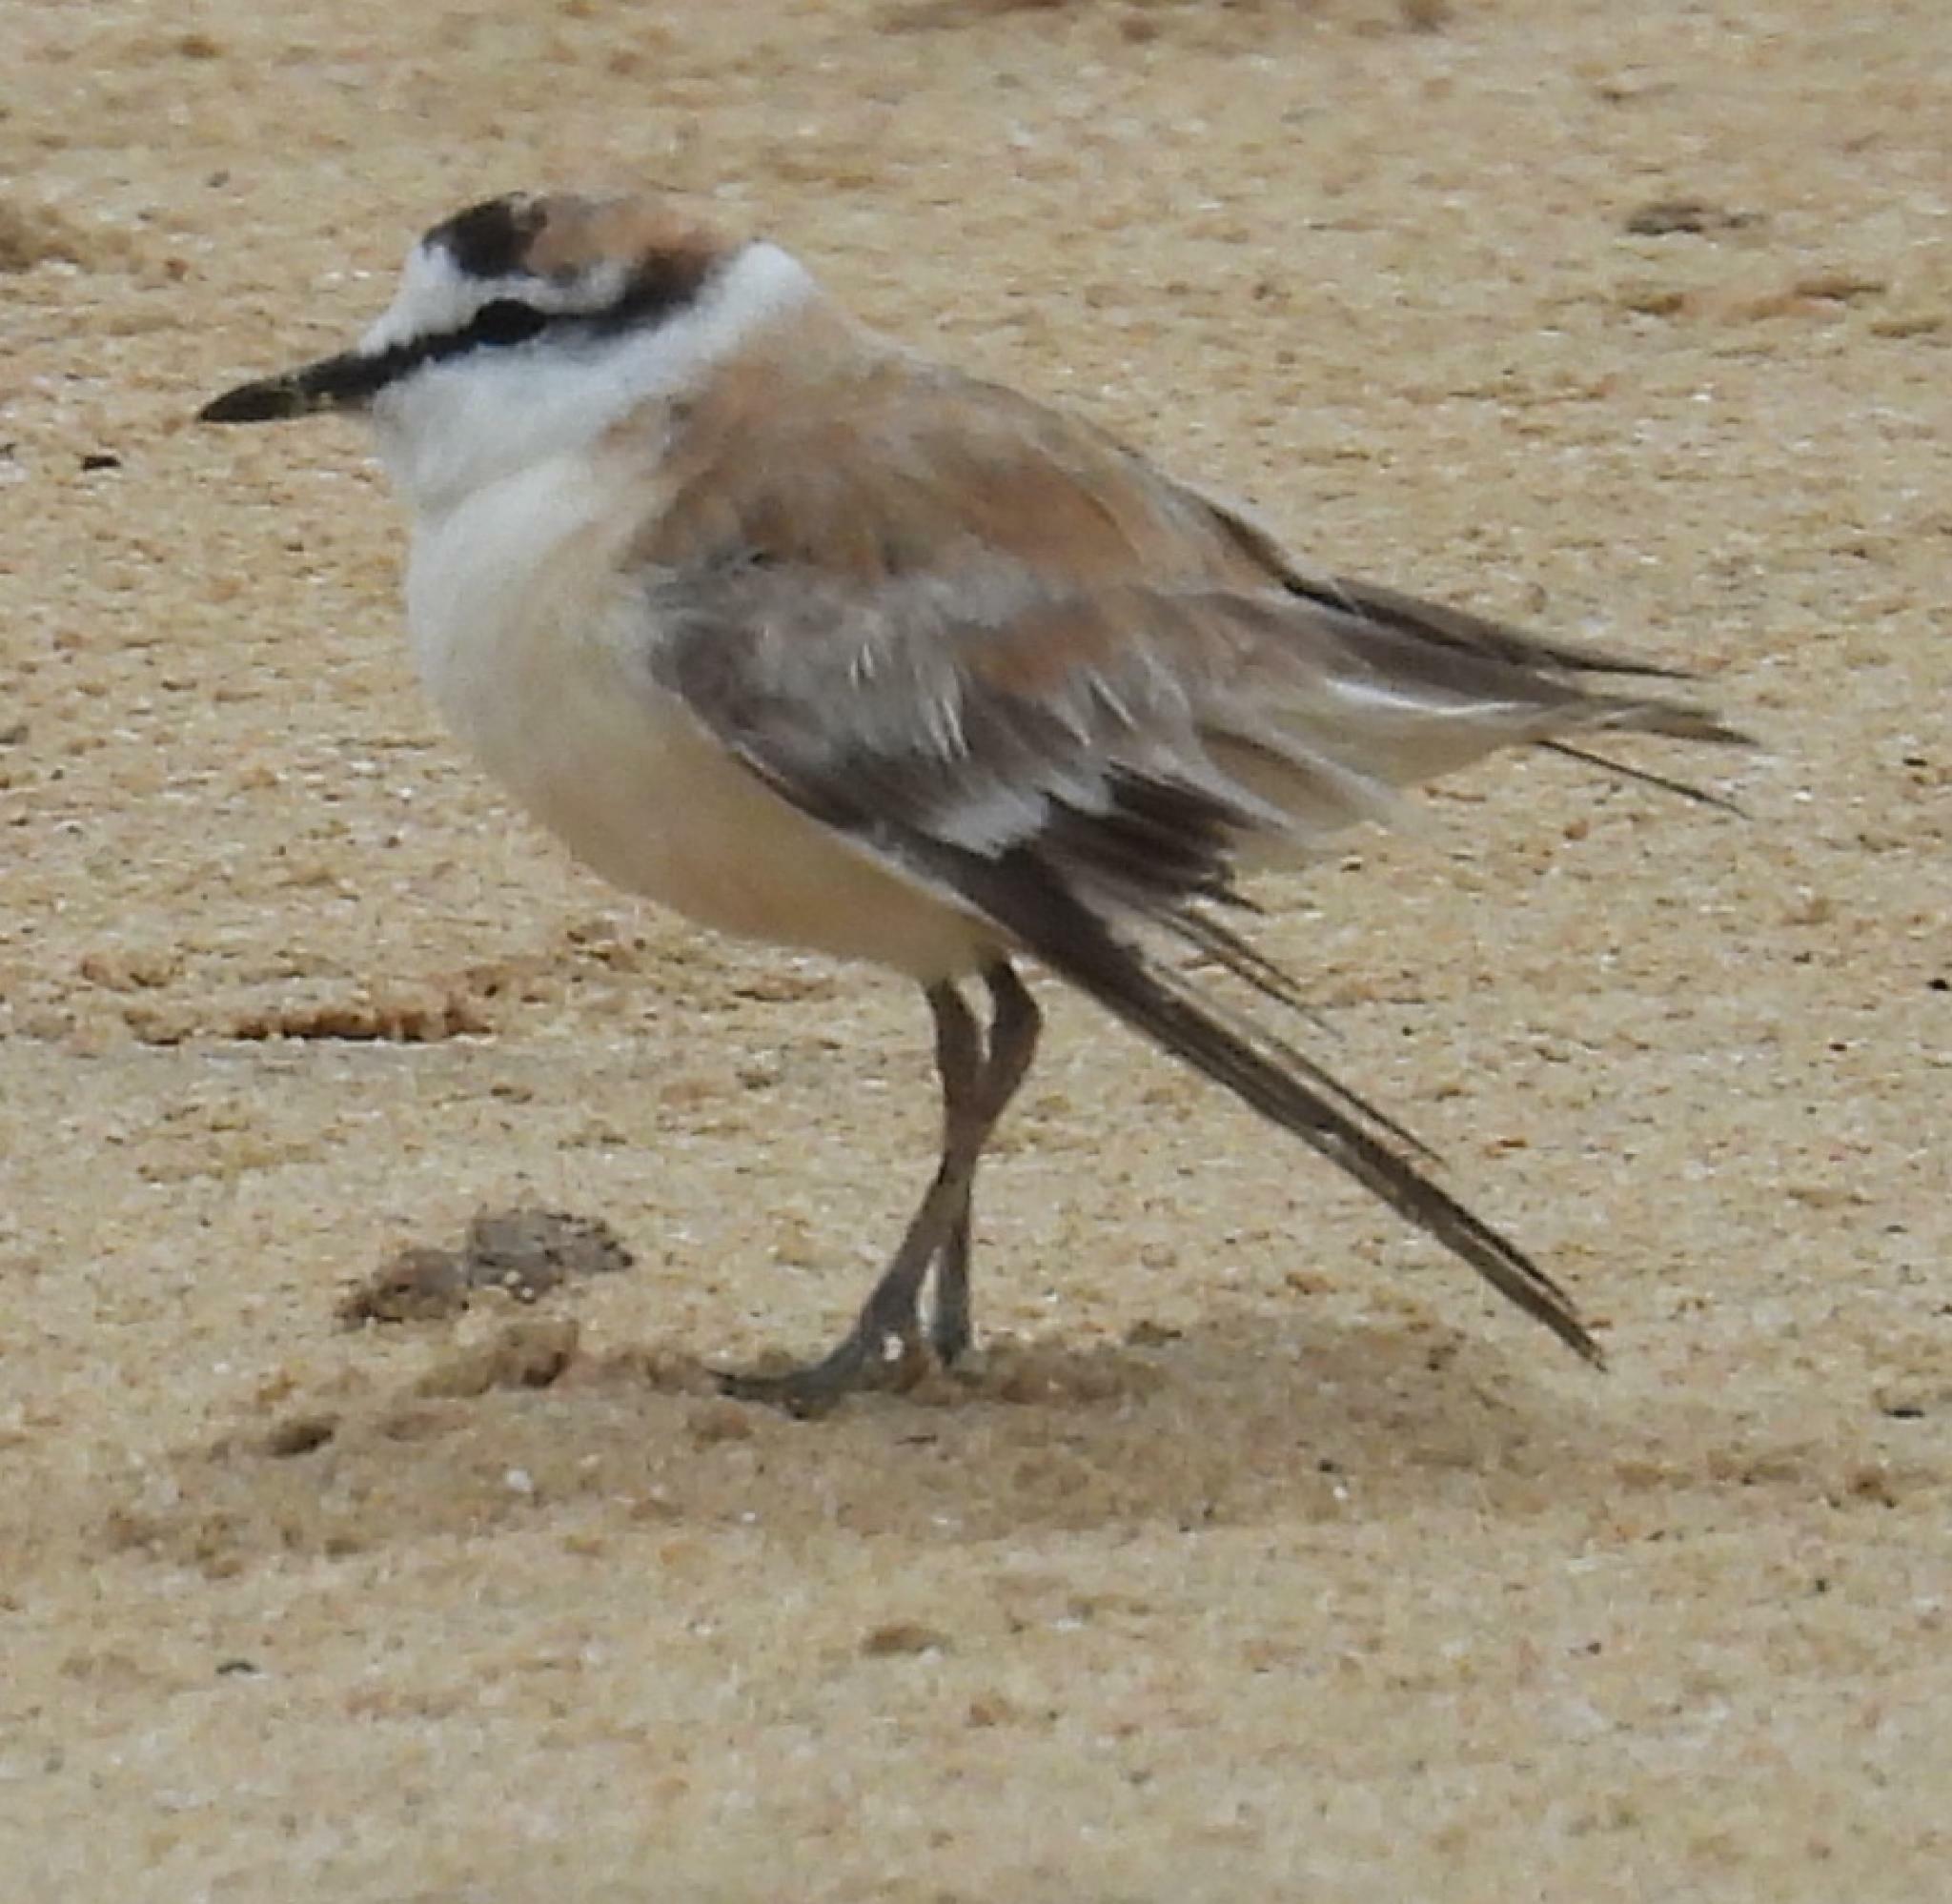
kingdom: Animalia
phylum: Chordata
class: Aves
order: Charadriiformes
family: Charadriidae
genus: Anarhynchus
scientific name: Anarhynchus
